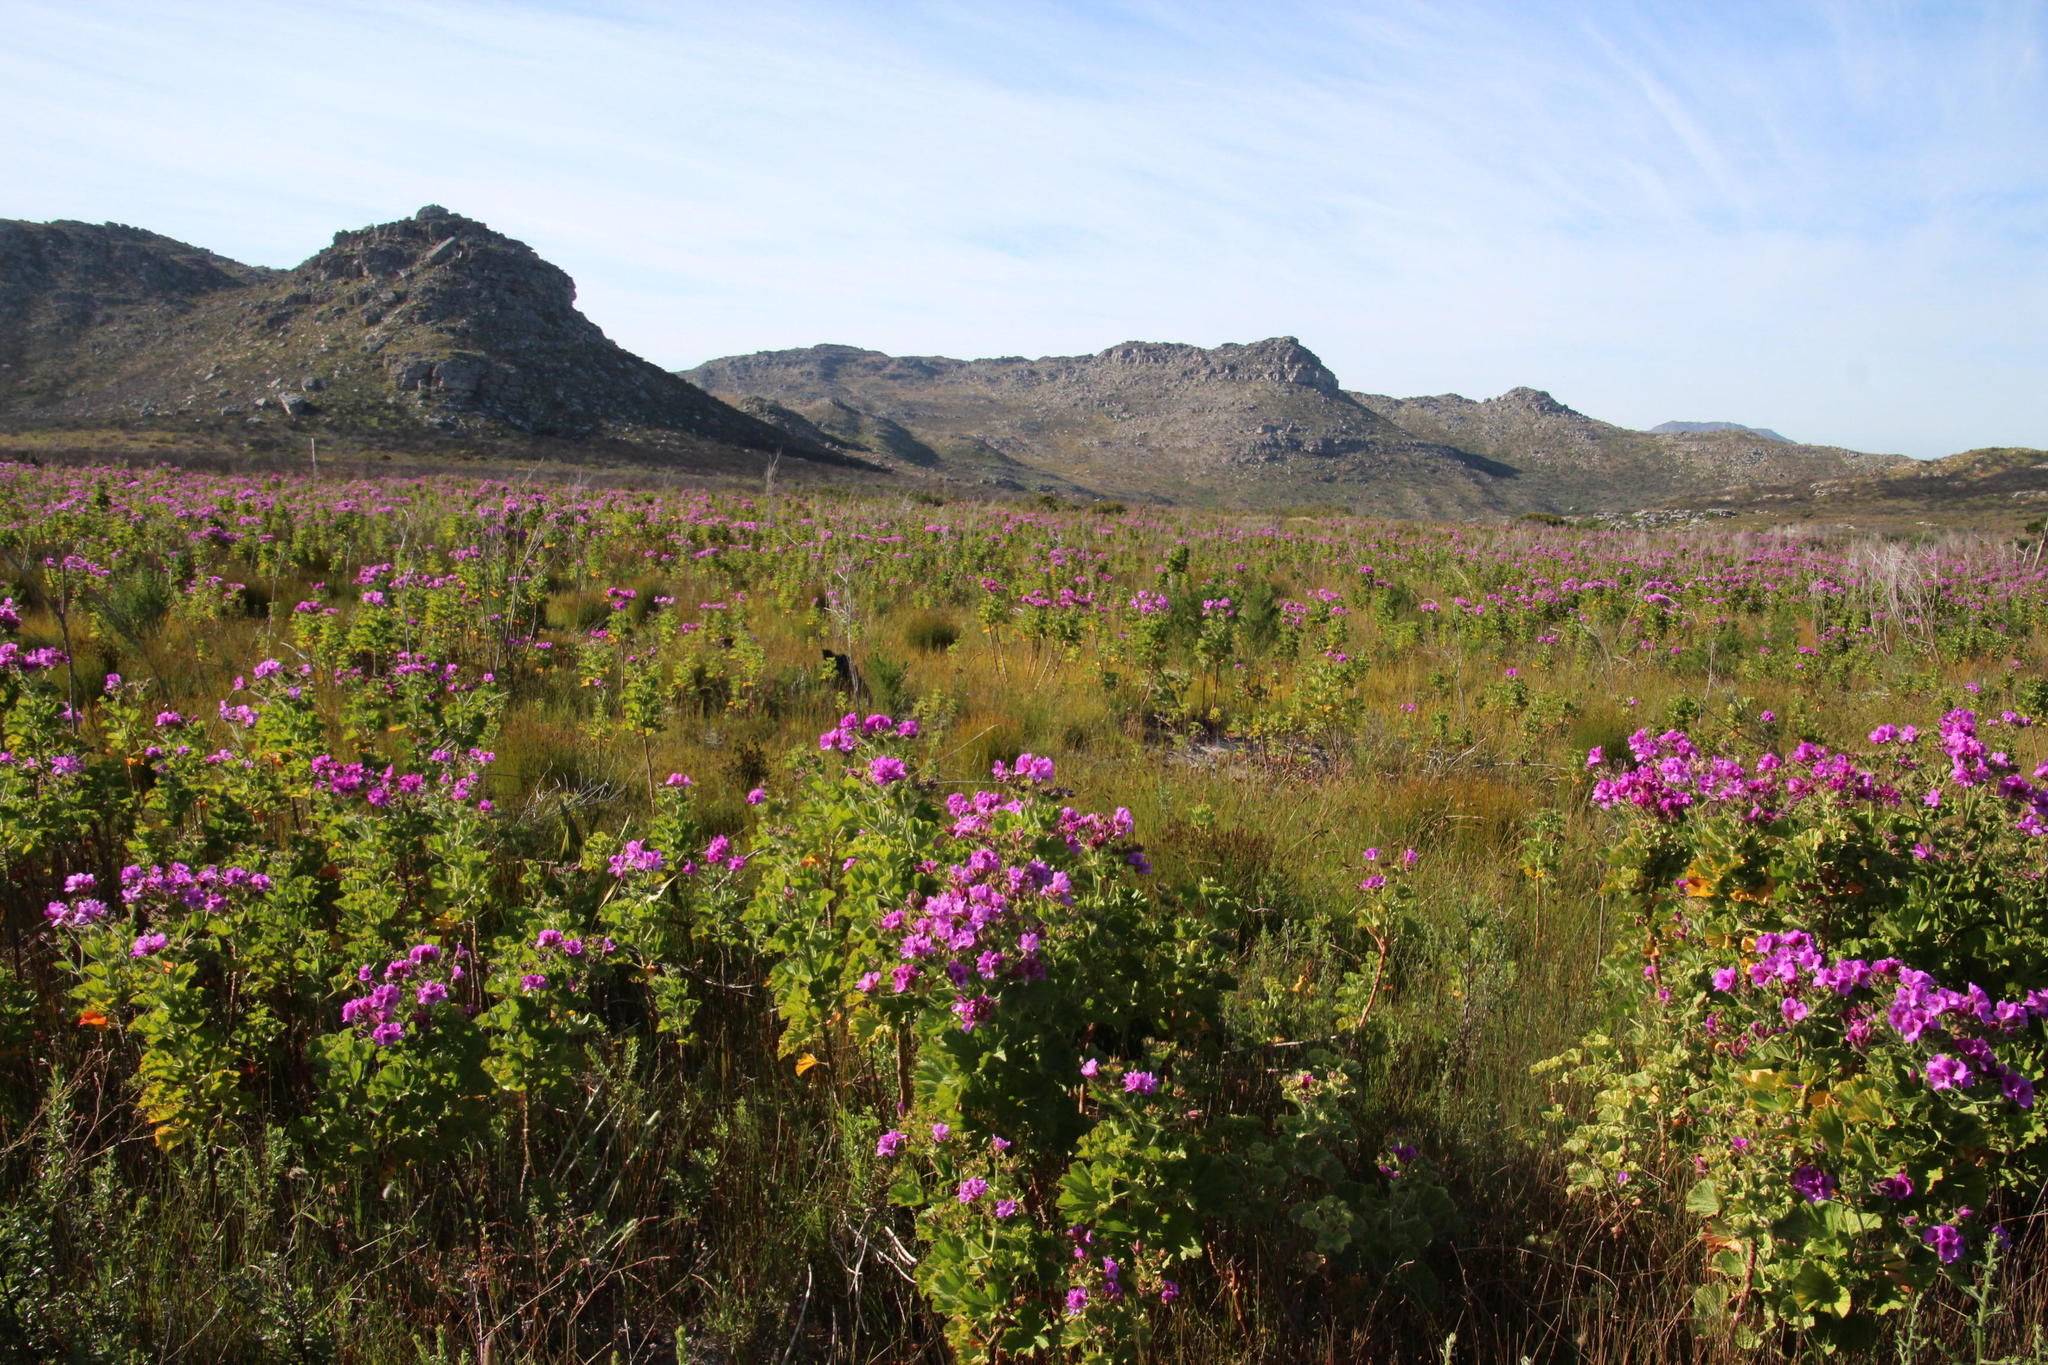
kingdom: Plantae
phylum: Tracheophyta
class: Magnoliopsida
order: Geraniales
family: Geraniaceae
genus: Pelargonium
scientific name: Pelargonium cucullatum
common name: Tree pelargonium
